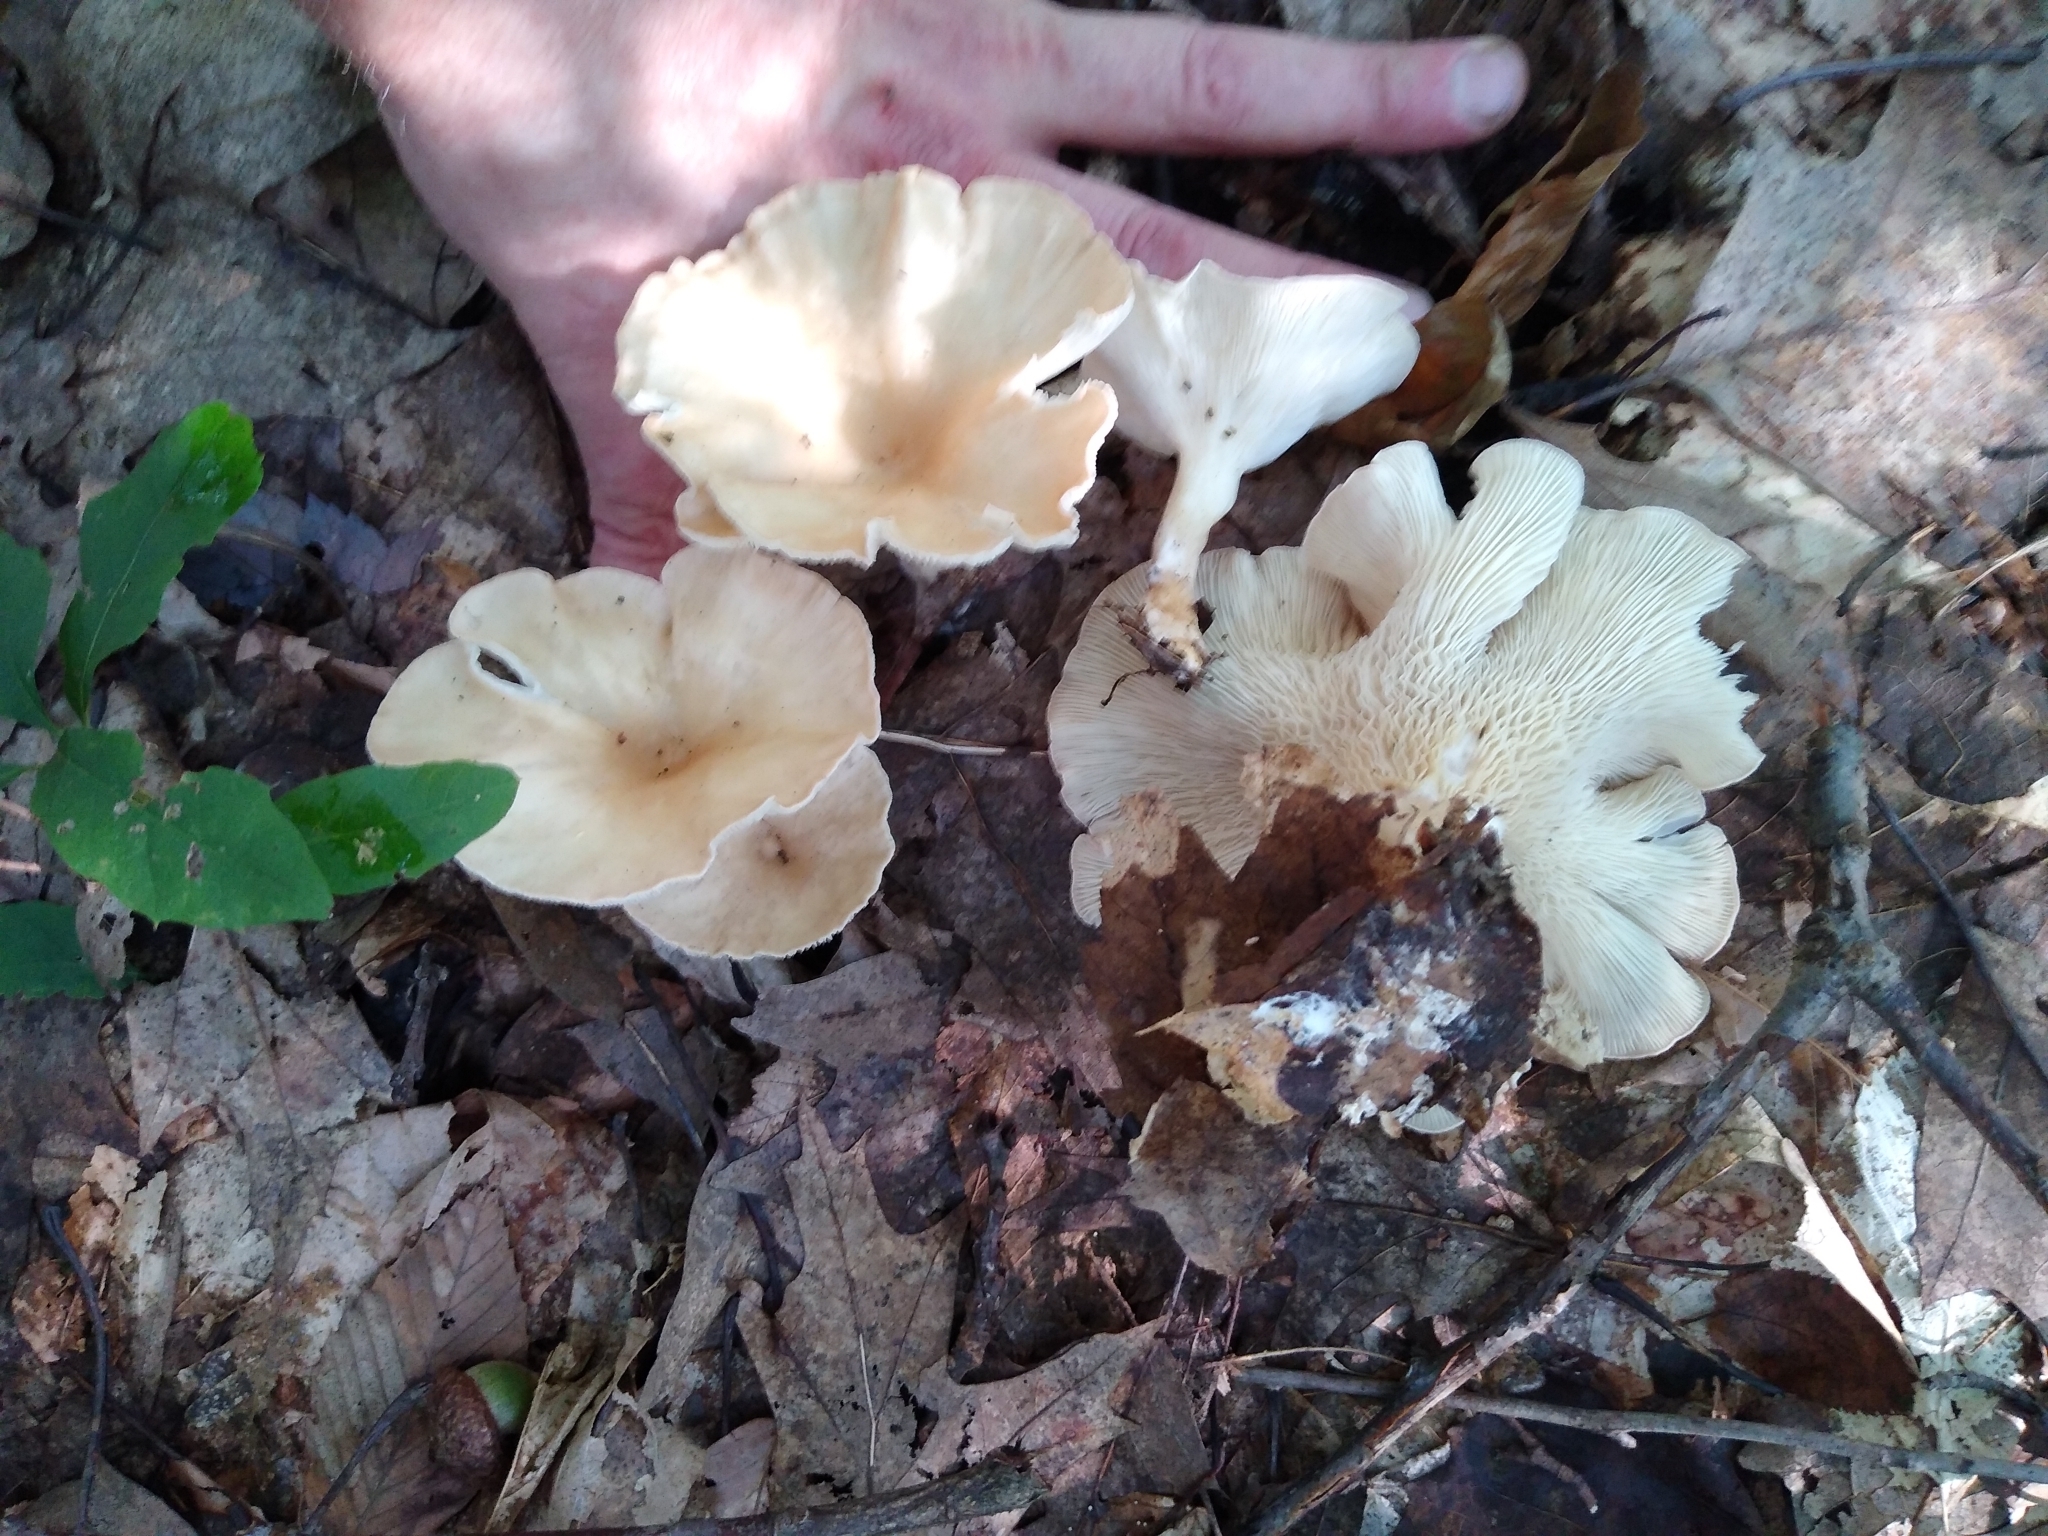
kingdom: Fungi
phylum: Basidiomycota
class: Agaricomycetes
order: Agaricales
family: Tricholomataceae
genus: Infundibulicybe
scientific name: Infundibulicybe squamulosa
